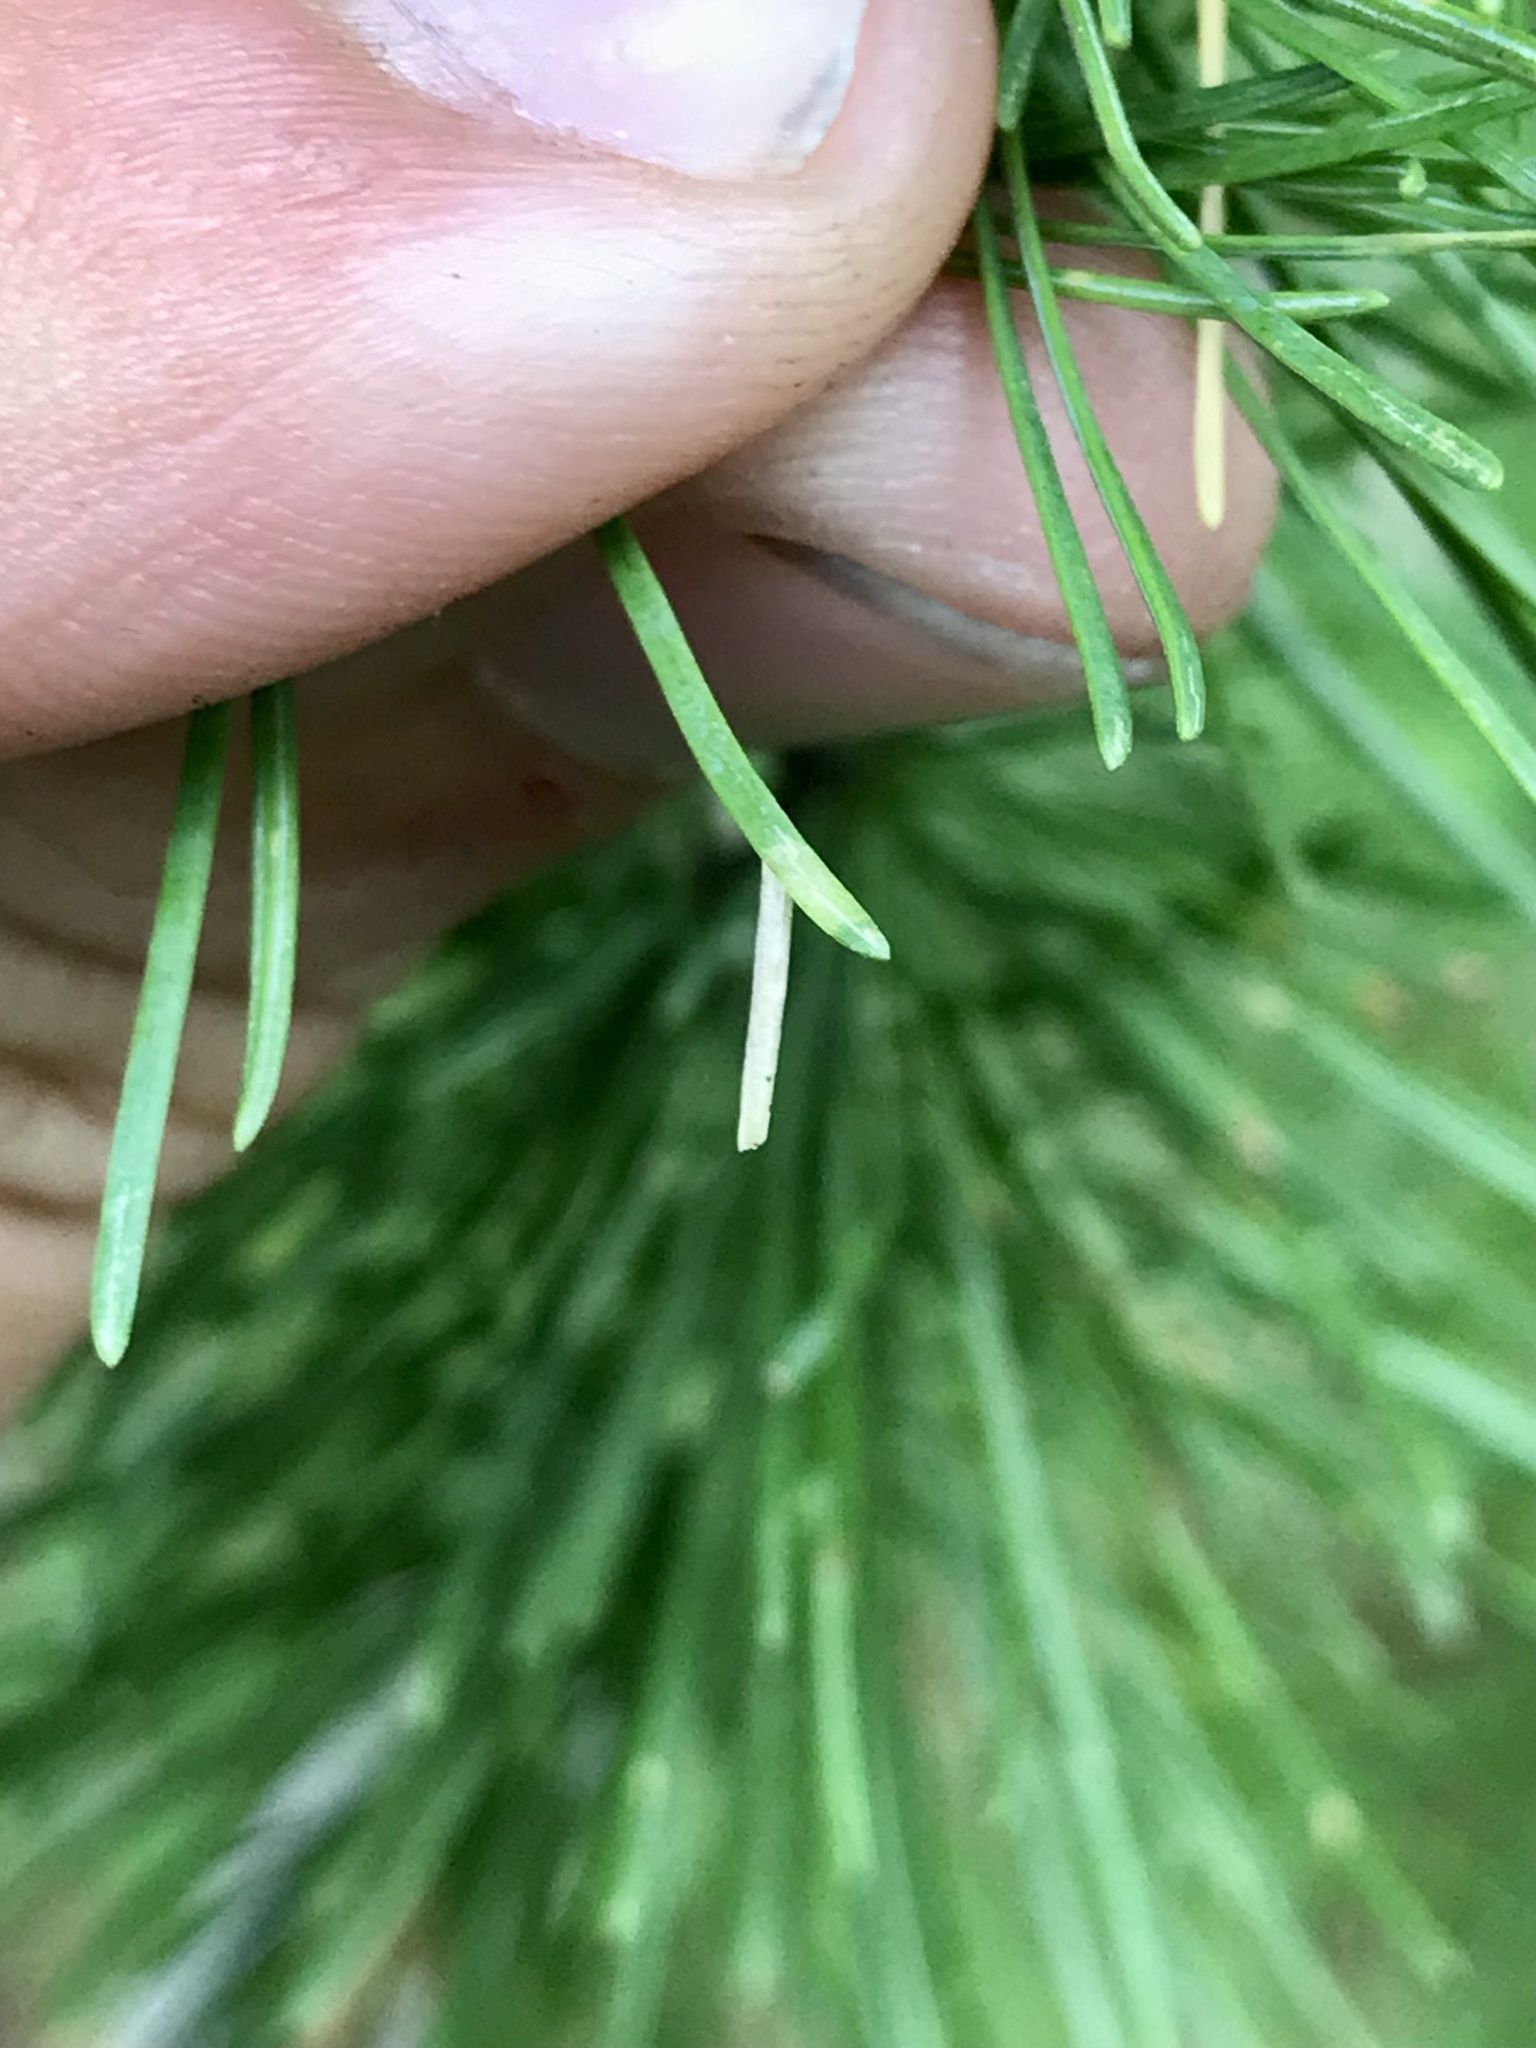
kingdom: Animalia
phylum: Arthropoda
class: Insecta
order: Lepidoptera
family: Coleophoridae
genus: Coleophora
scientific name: Coleophora laricella
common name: Larch case-bearer
